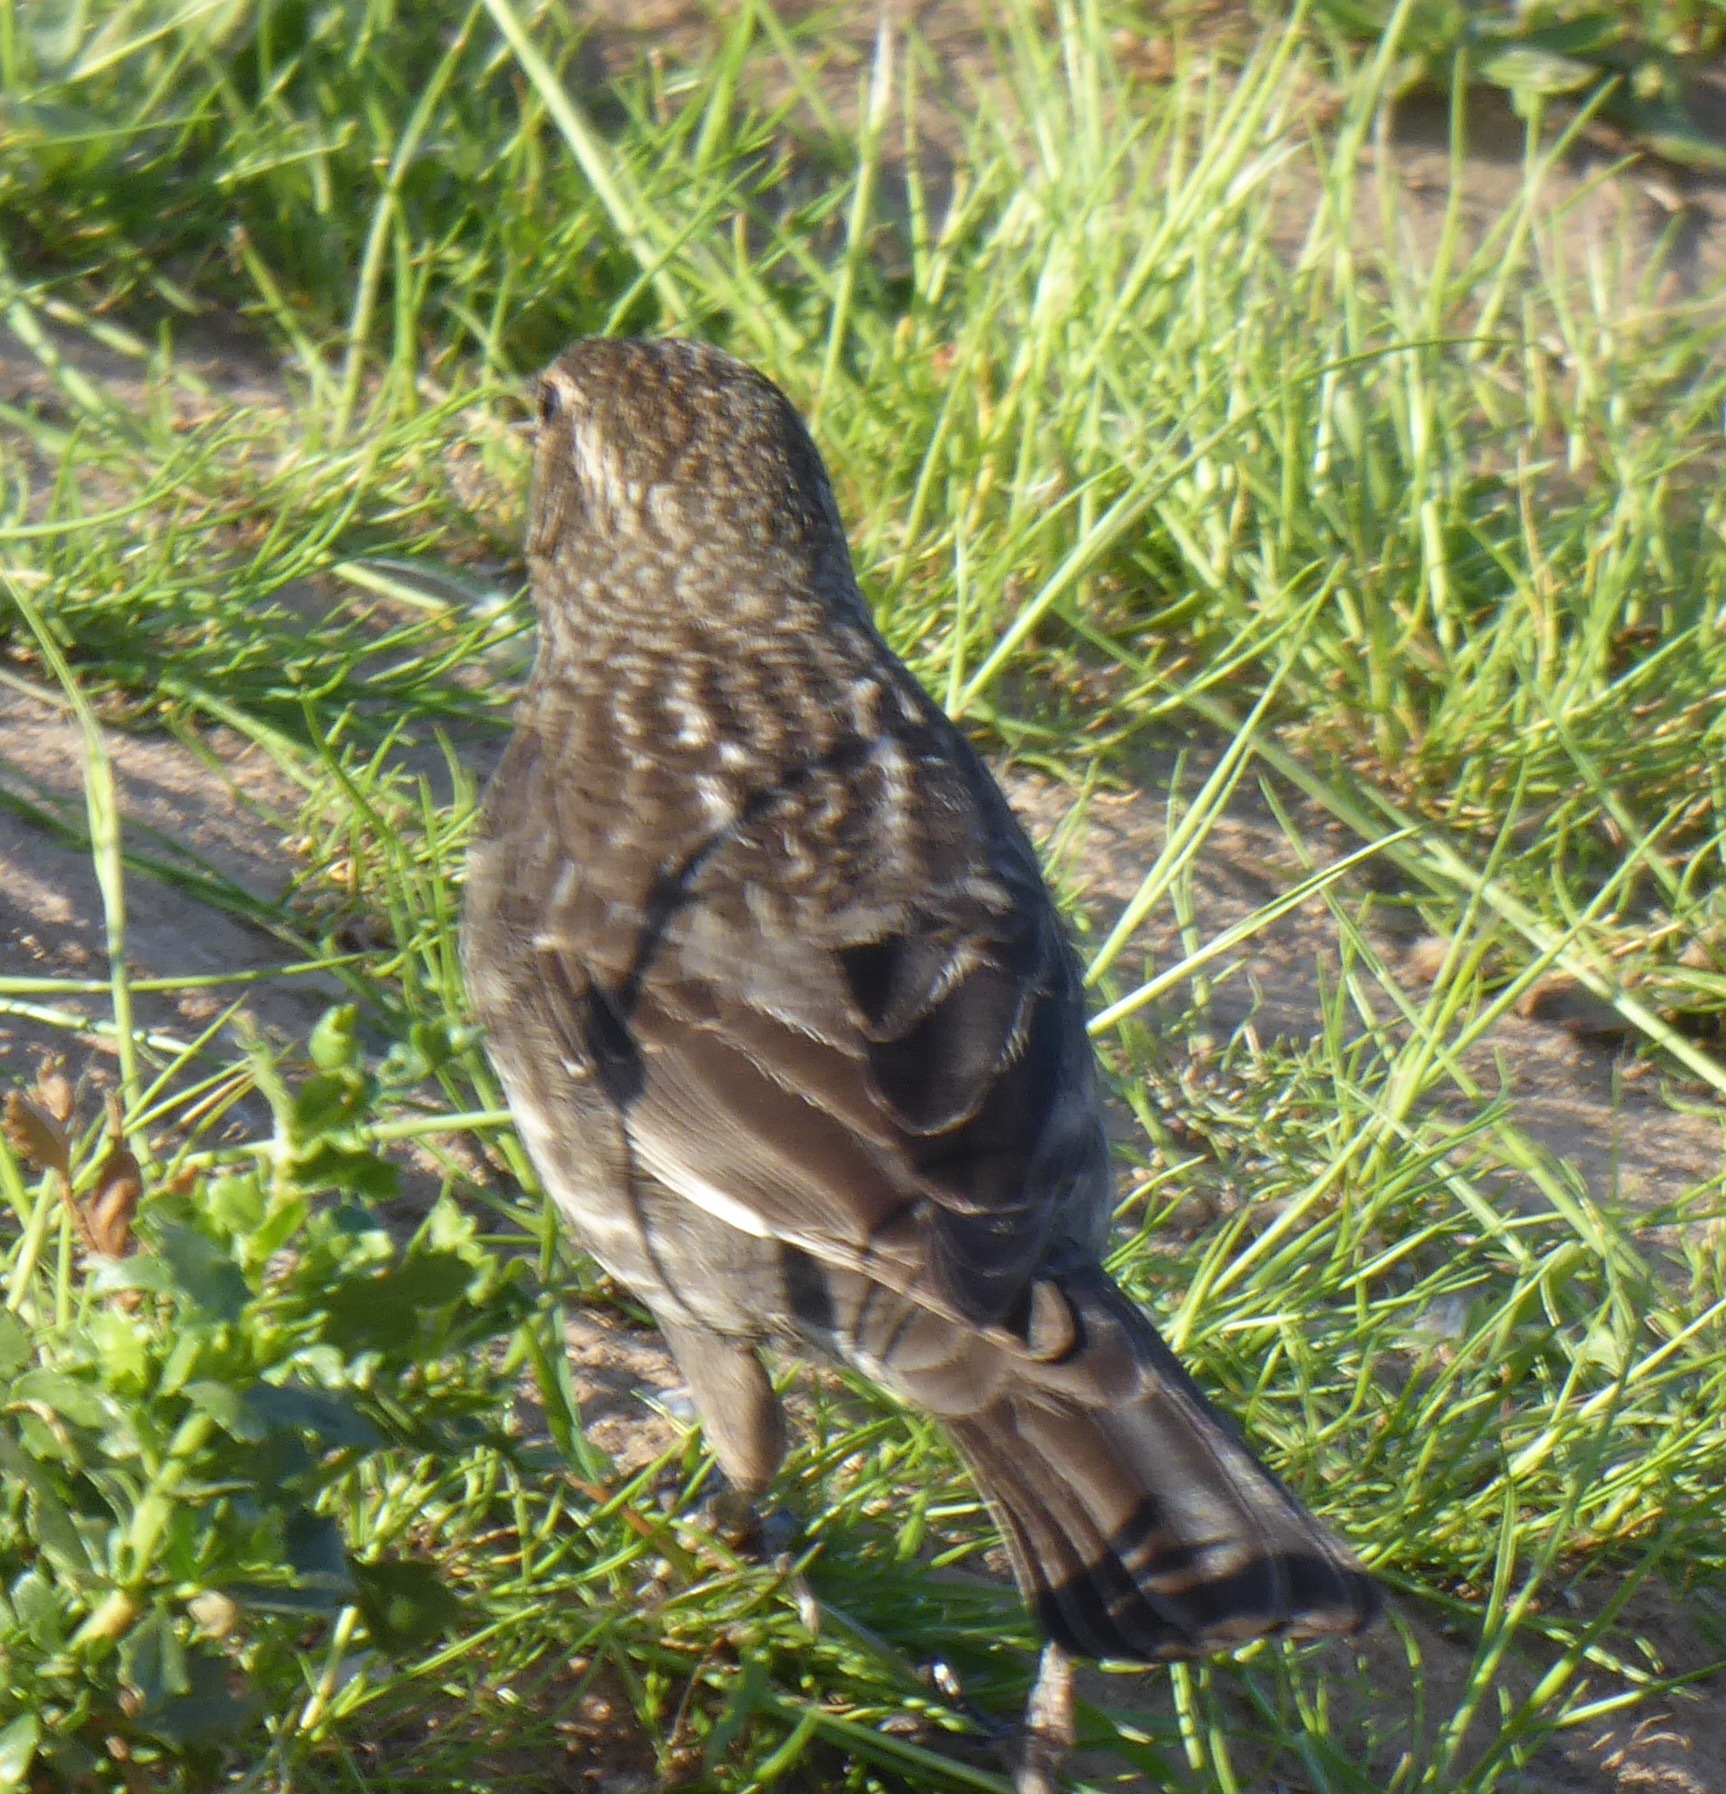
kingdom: Animalia
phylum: Chordata
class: Aves
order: Passeriformes
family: Icteridae
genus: Agelaius
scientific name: Agelaius phoeniceus
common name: Red-winged blackbird
